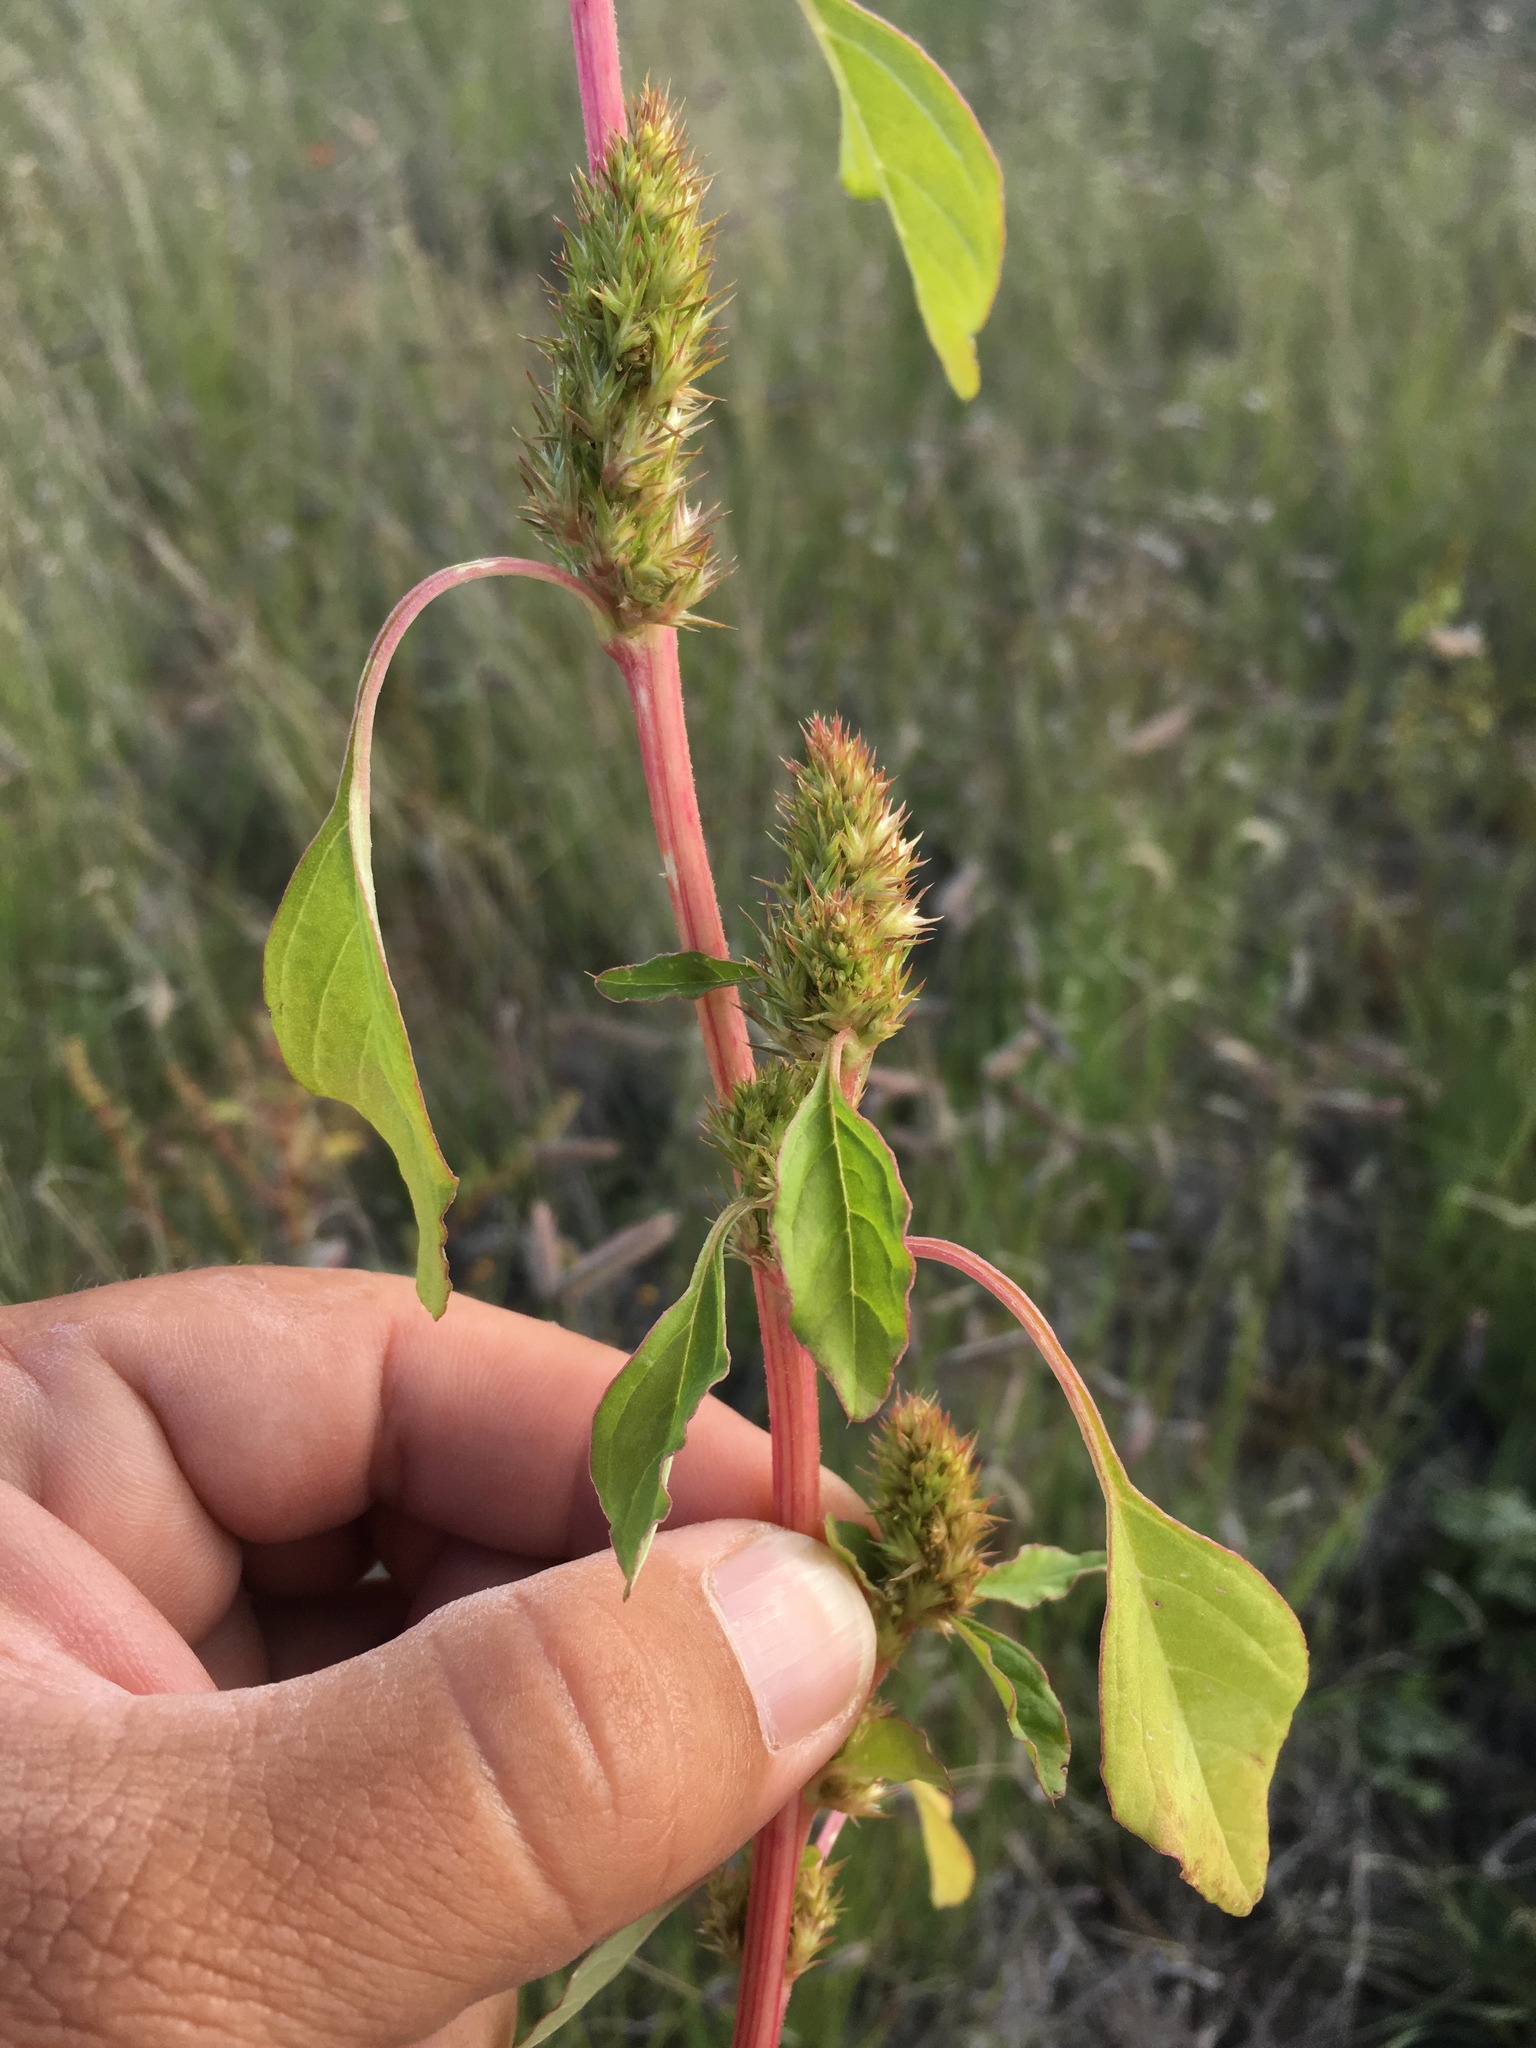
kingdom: Plantae
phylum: Tracheophyta
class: Magnoliopsida
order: Caryophyllales
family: Amaranthaceae
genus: Amaranthus
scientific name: Amaranthus powellii
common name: Powell's amaranth
